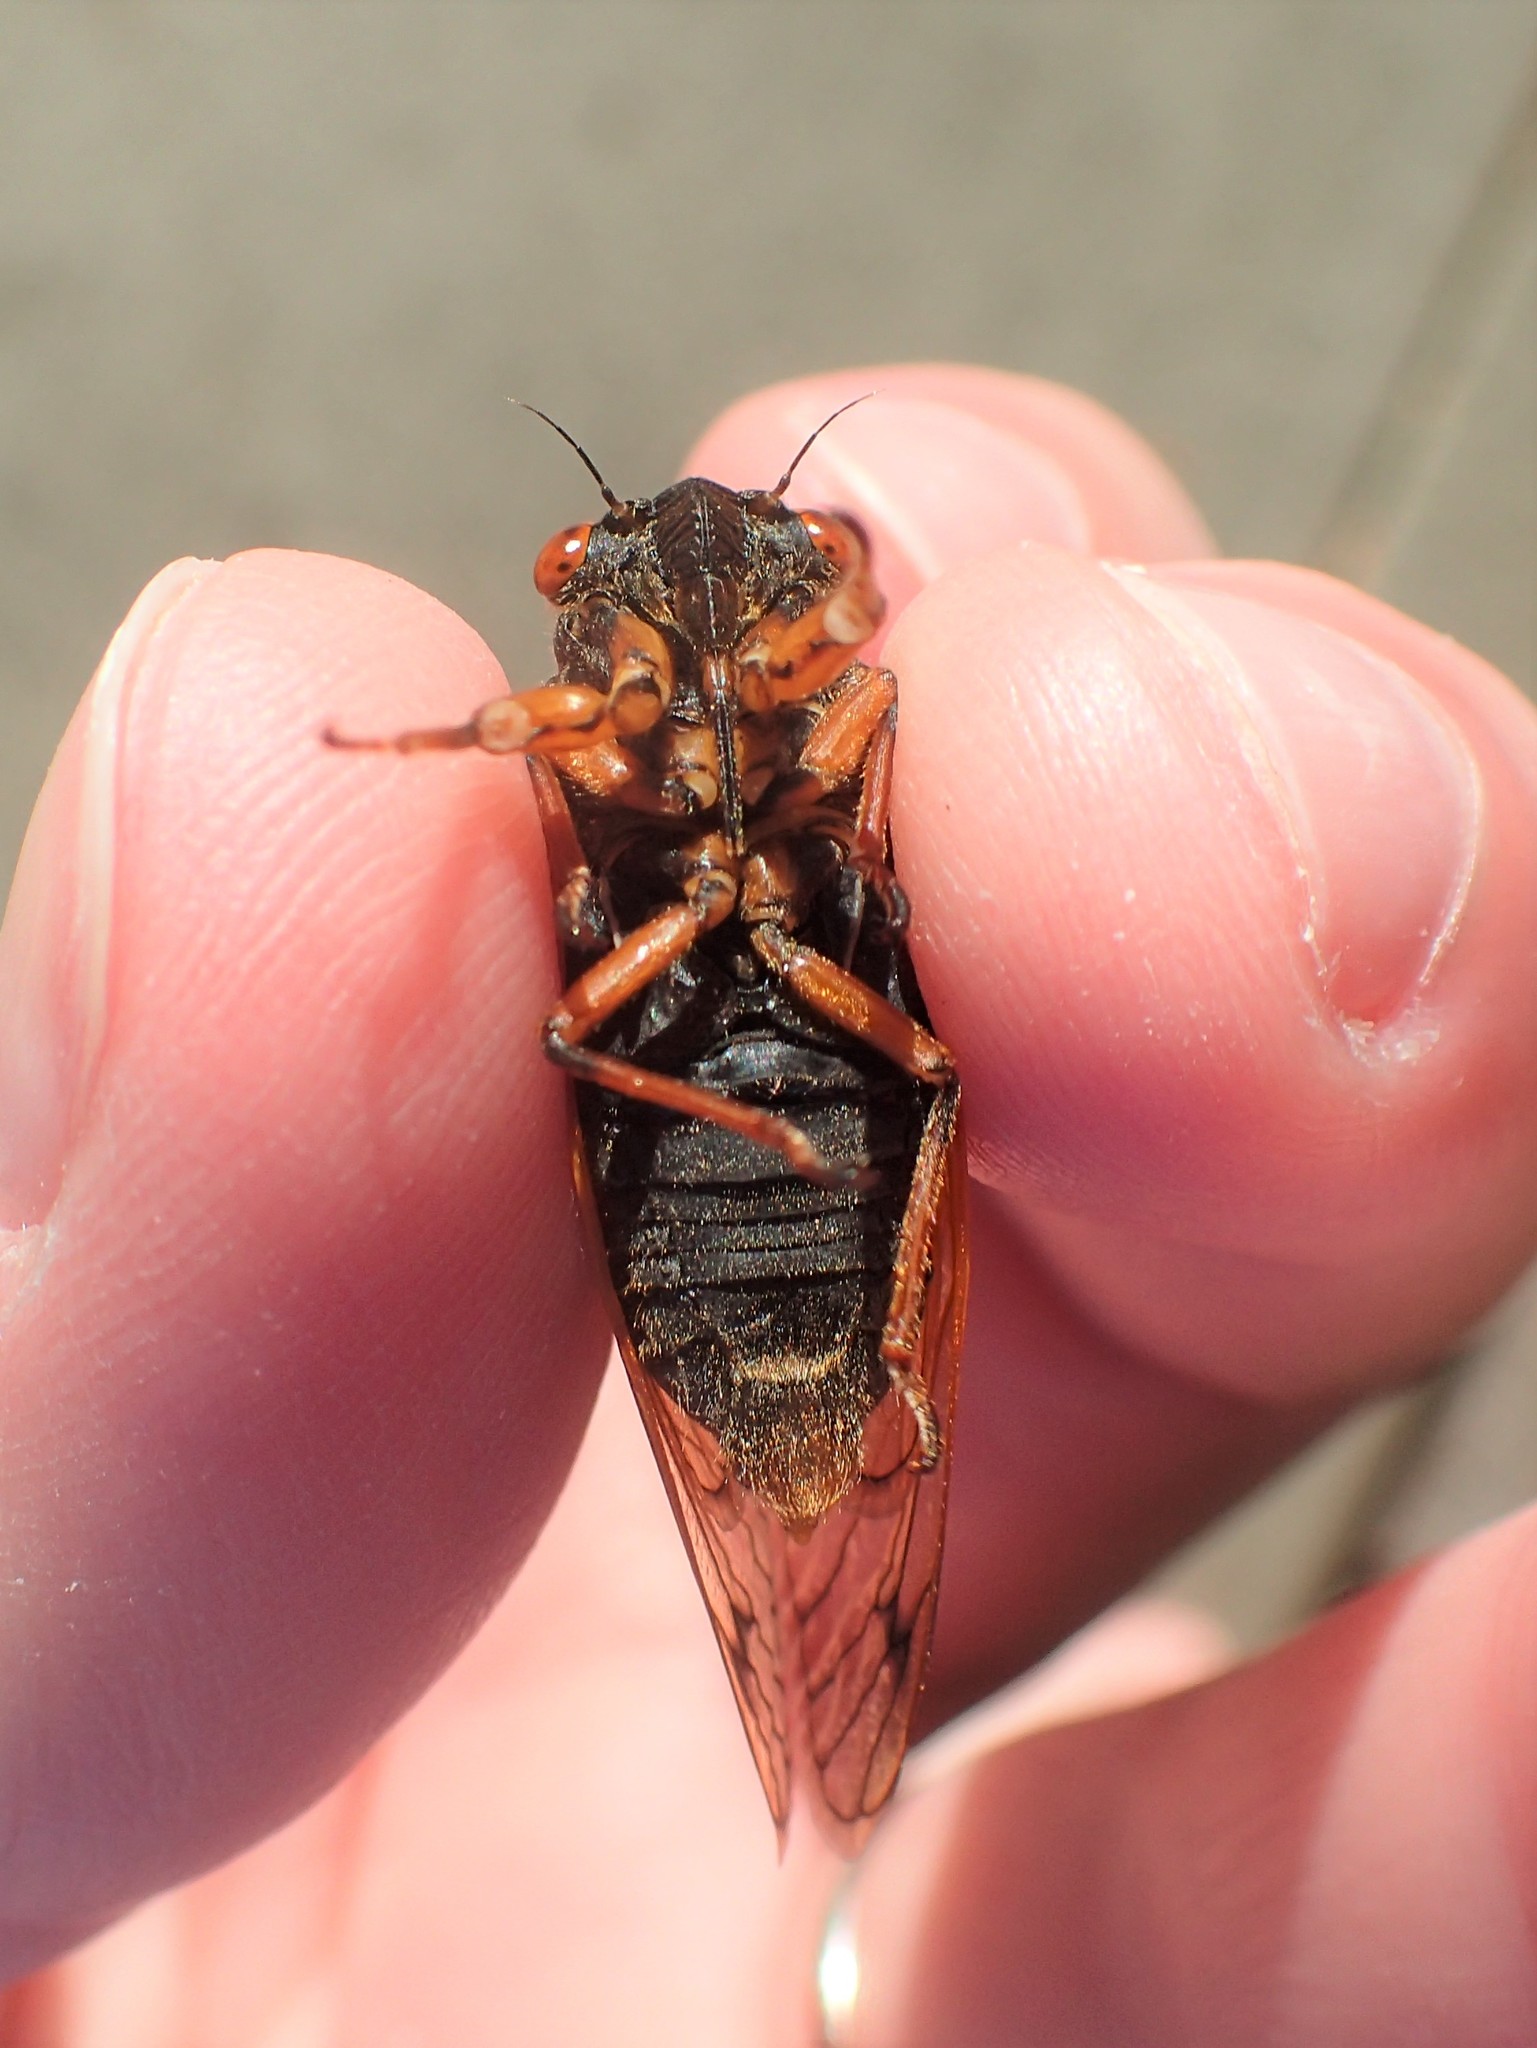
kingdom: Animalia
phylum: Arthropoda
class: Insecta
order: Hemiptera
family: Cicadidae
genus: Magicicada
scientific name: Magicicada cassini
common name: Cassin's 17-year cicada
